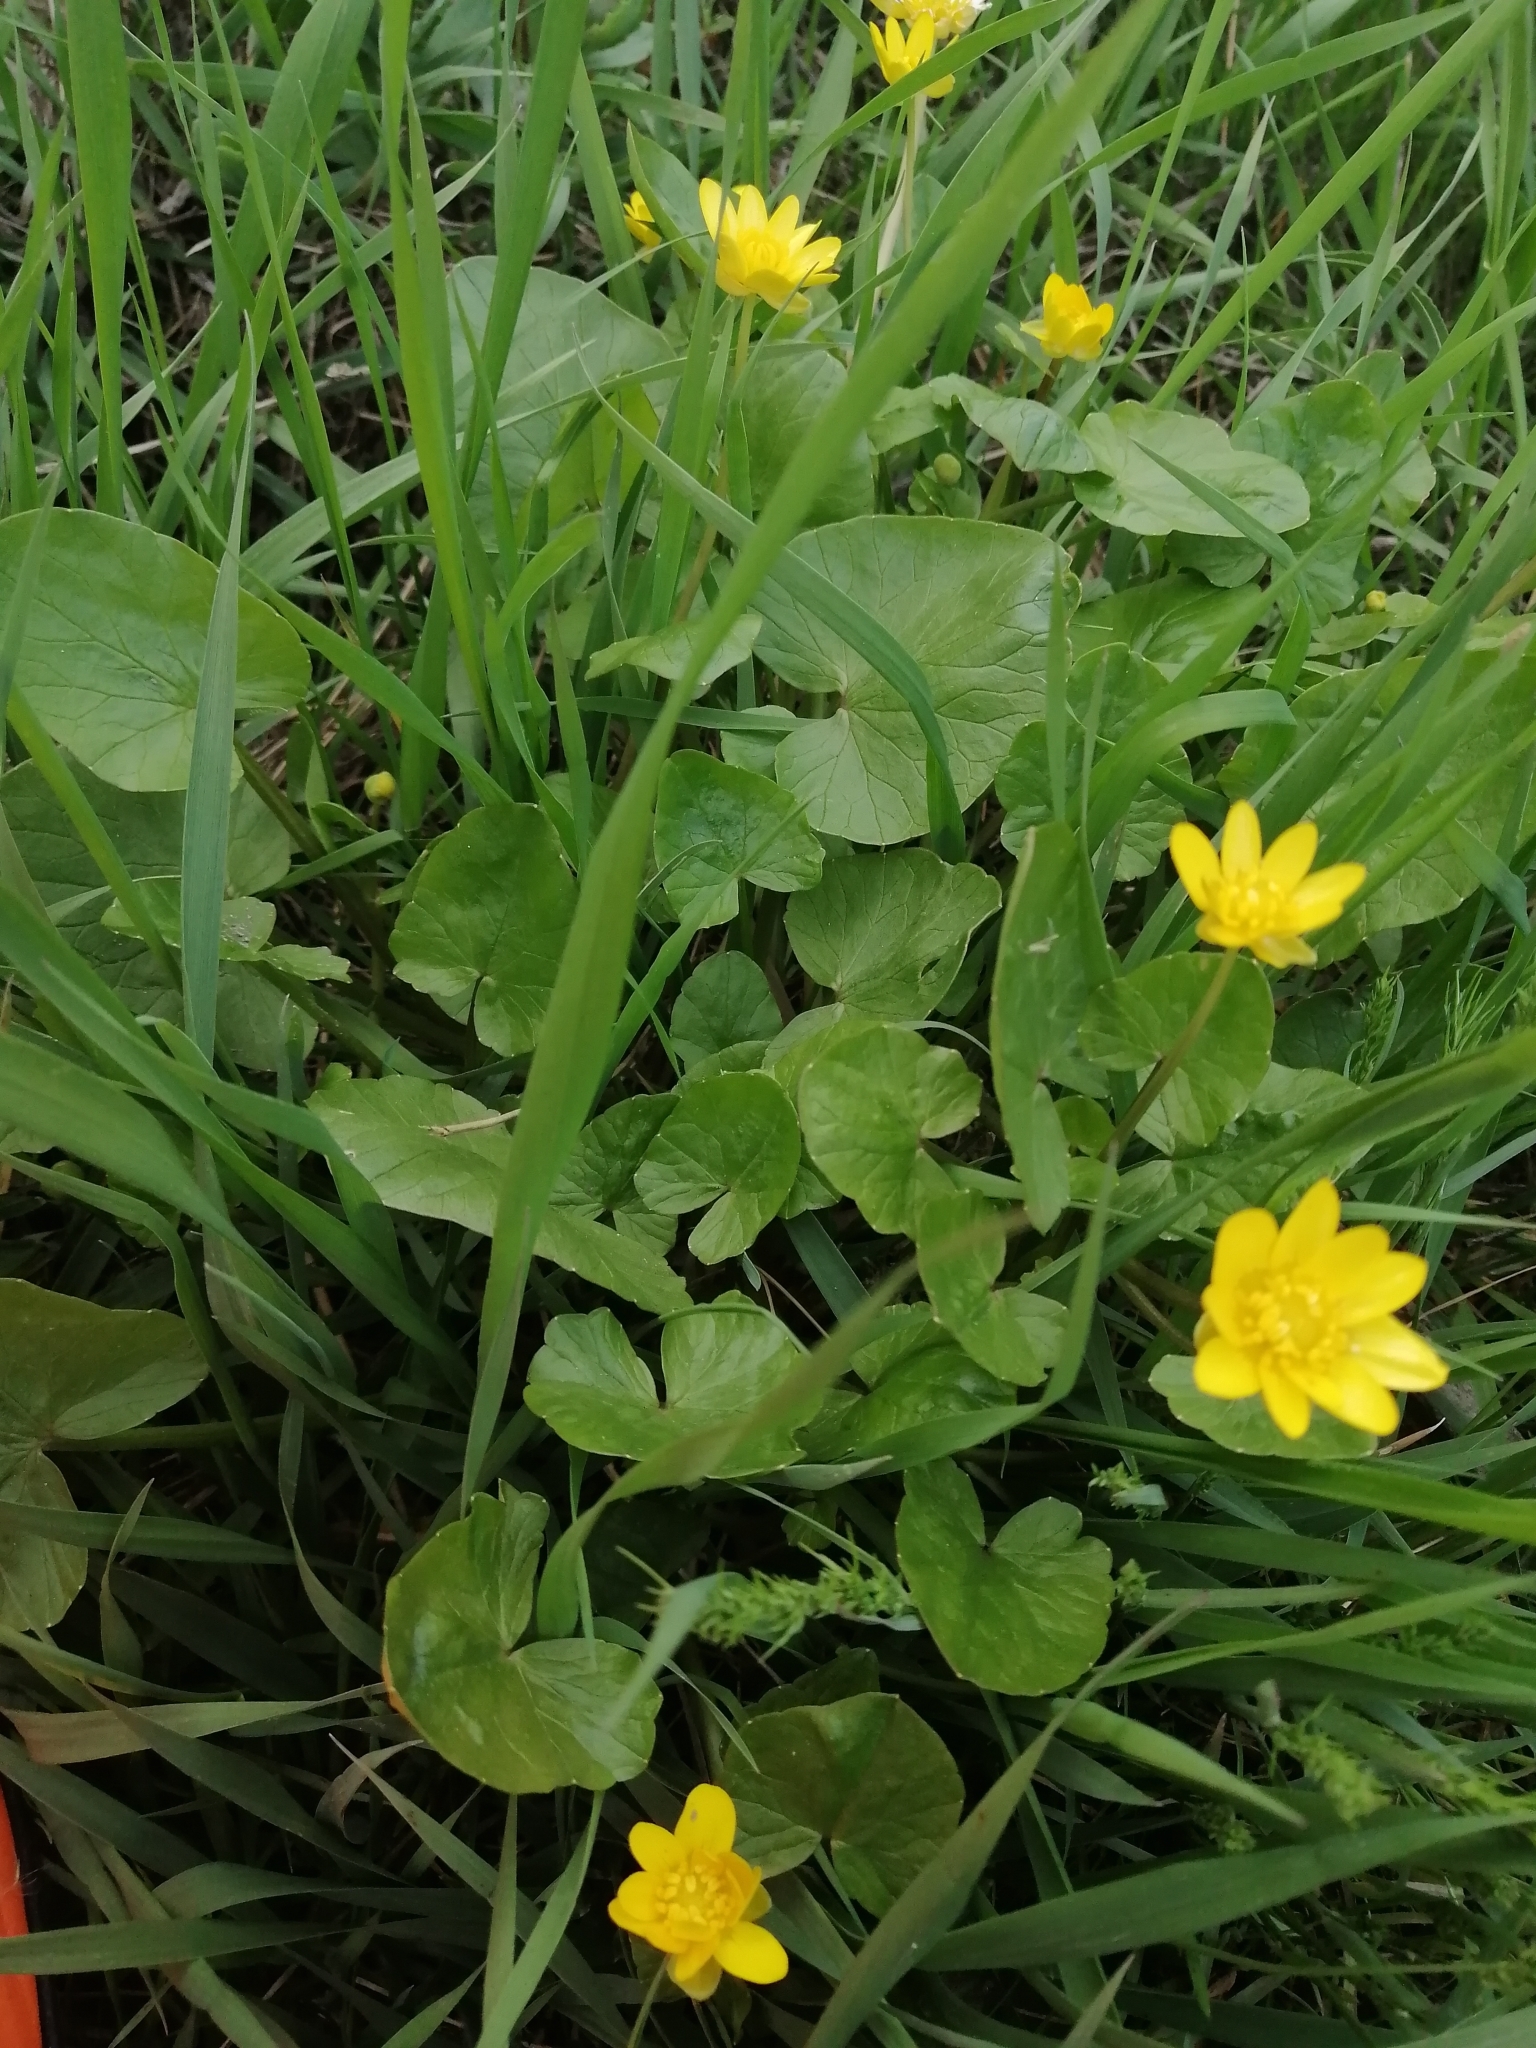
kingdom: Plantae
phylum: Tracheophyta
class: Magnoliopsida
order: Ranunculales
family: Ranunculaceae
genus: Ficaria
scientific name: Ficaria verna
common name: Lesser celandine
